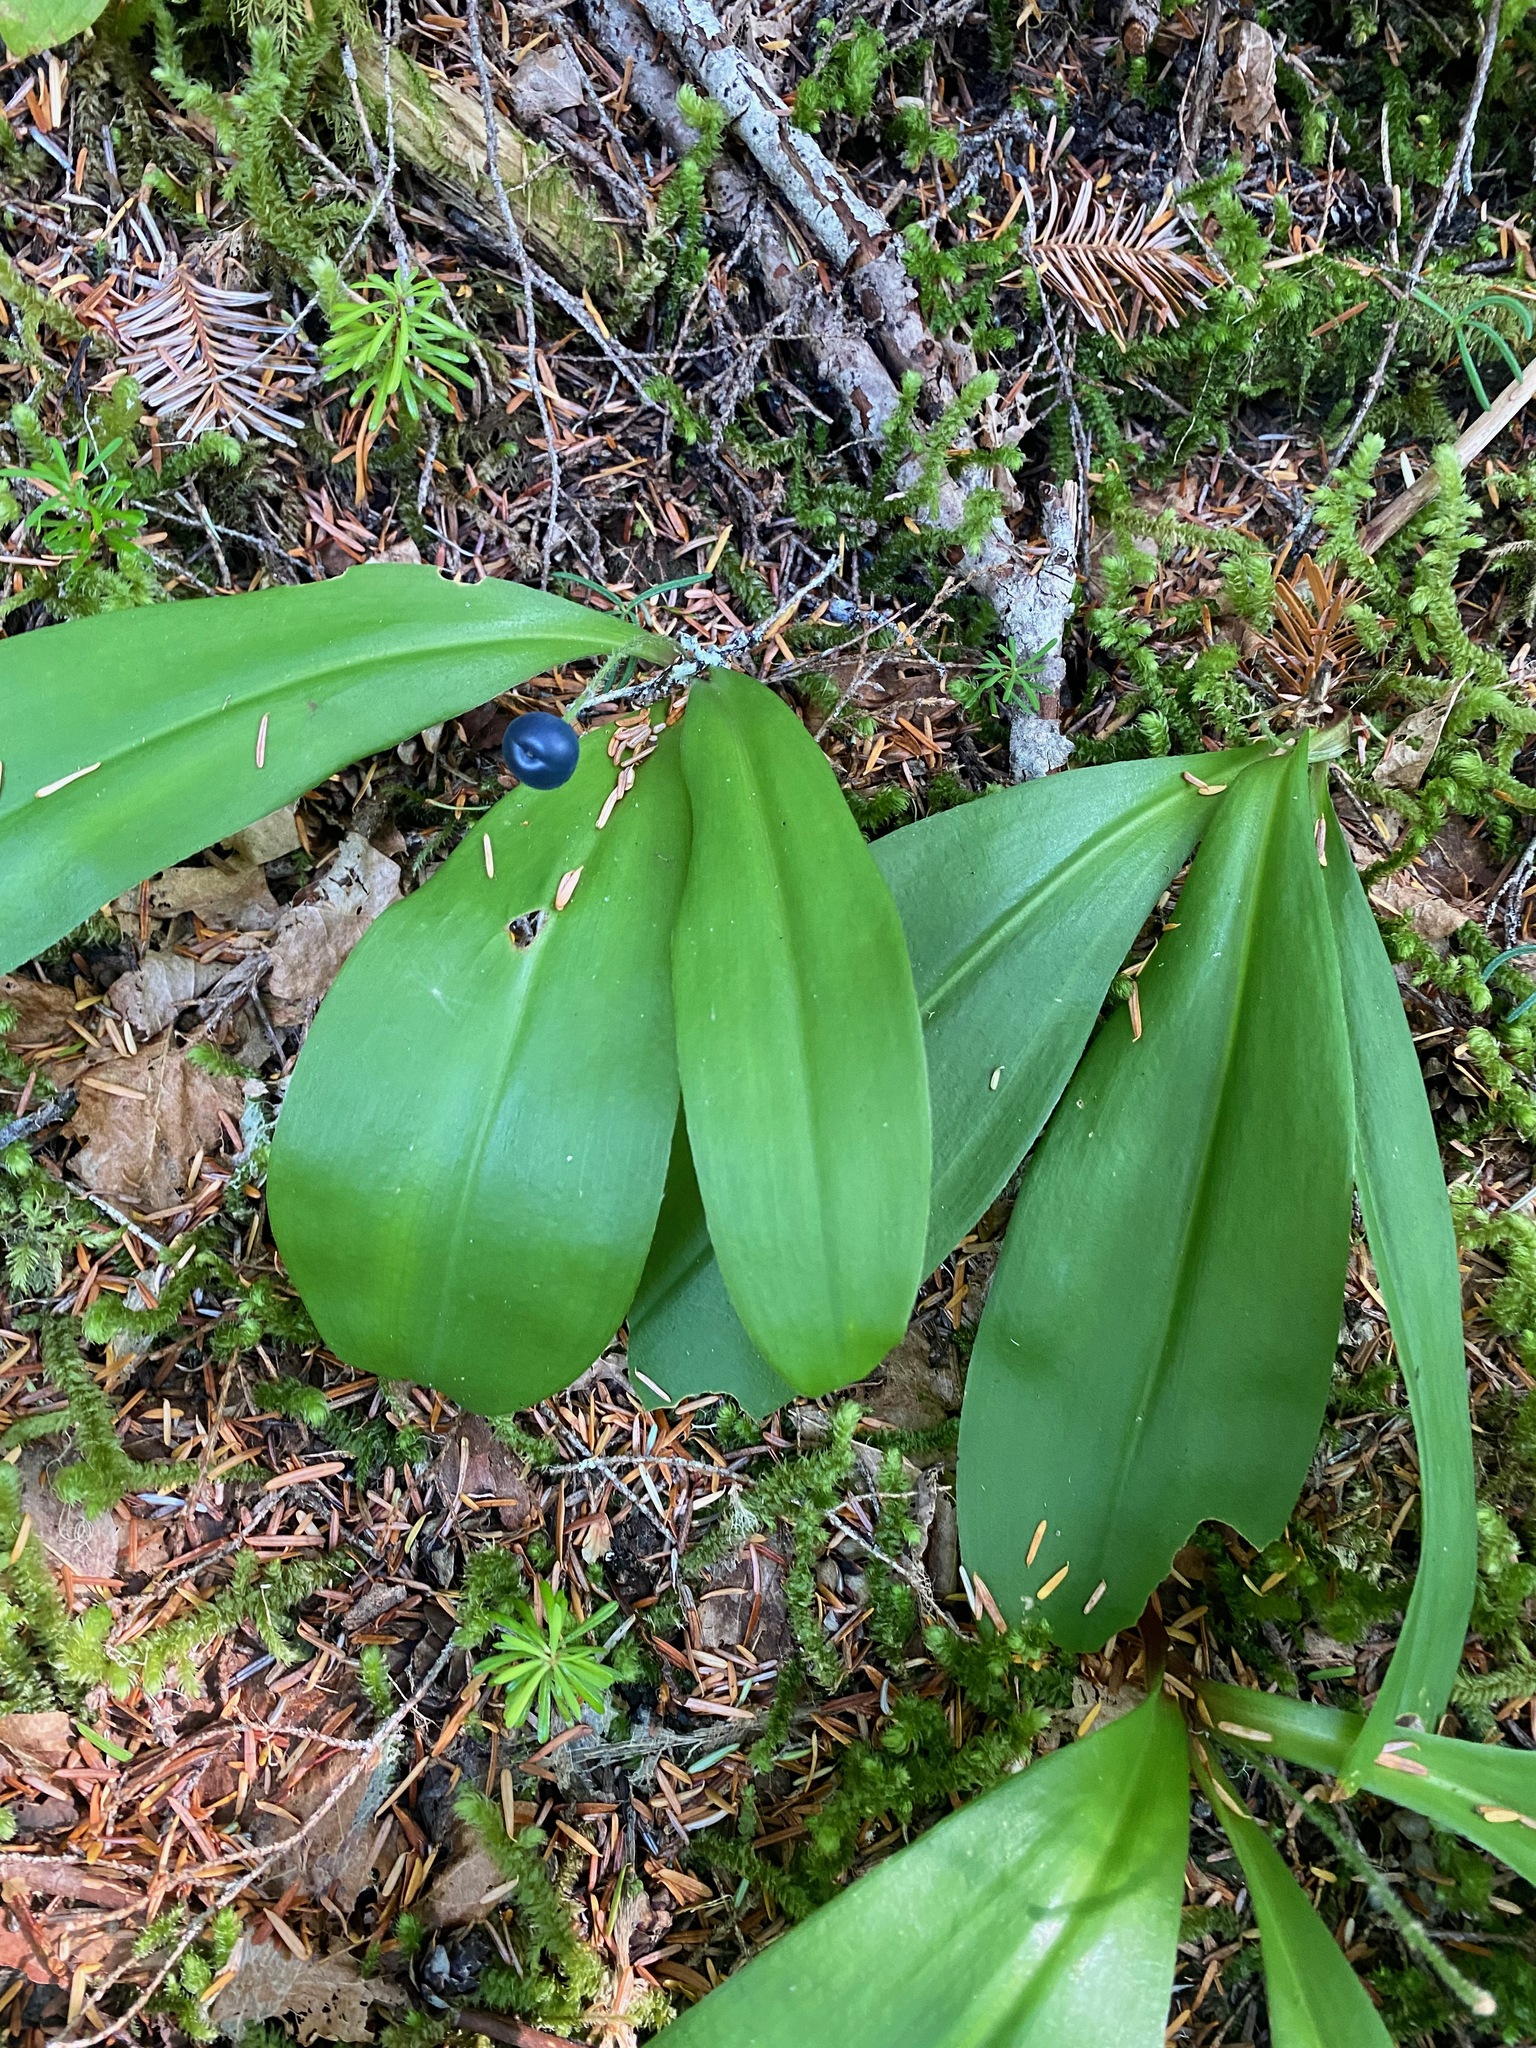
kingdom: Plantae
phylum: Tracheophyta
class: Liliopsida
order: Liliales
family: Liliaceae
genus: Clintonia
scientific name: Clintonia uniflora
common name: Queen's cup
